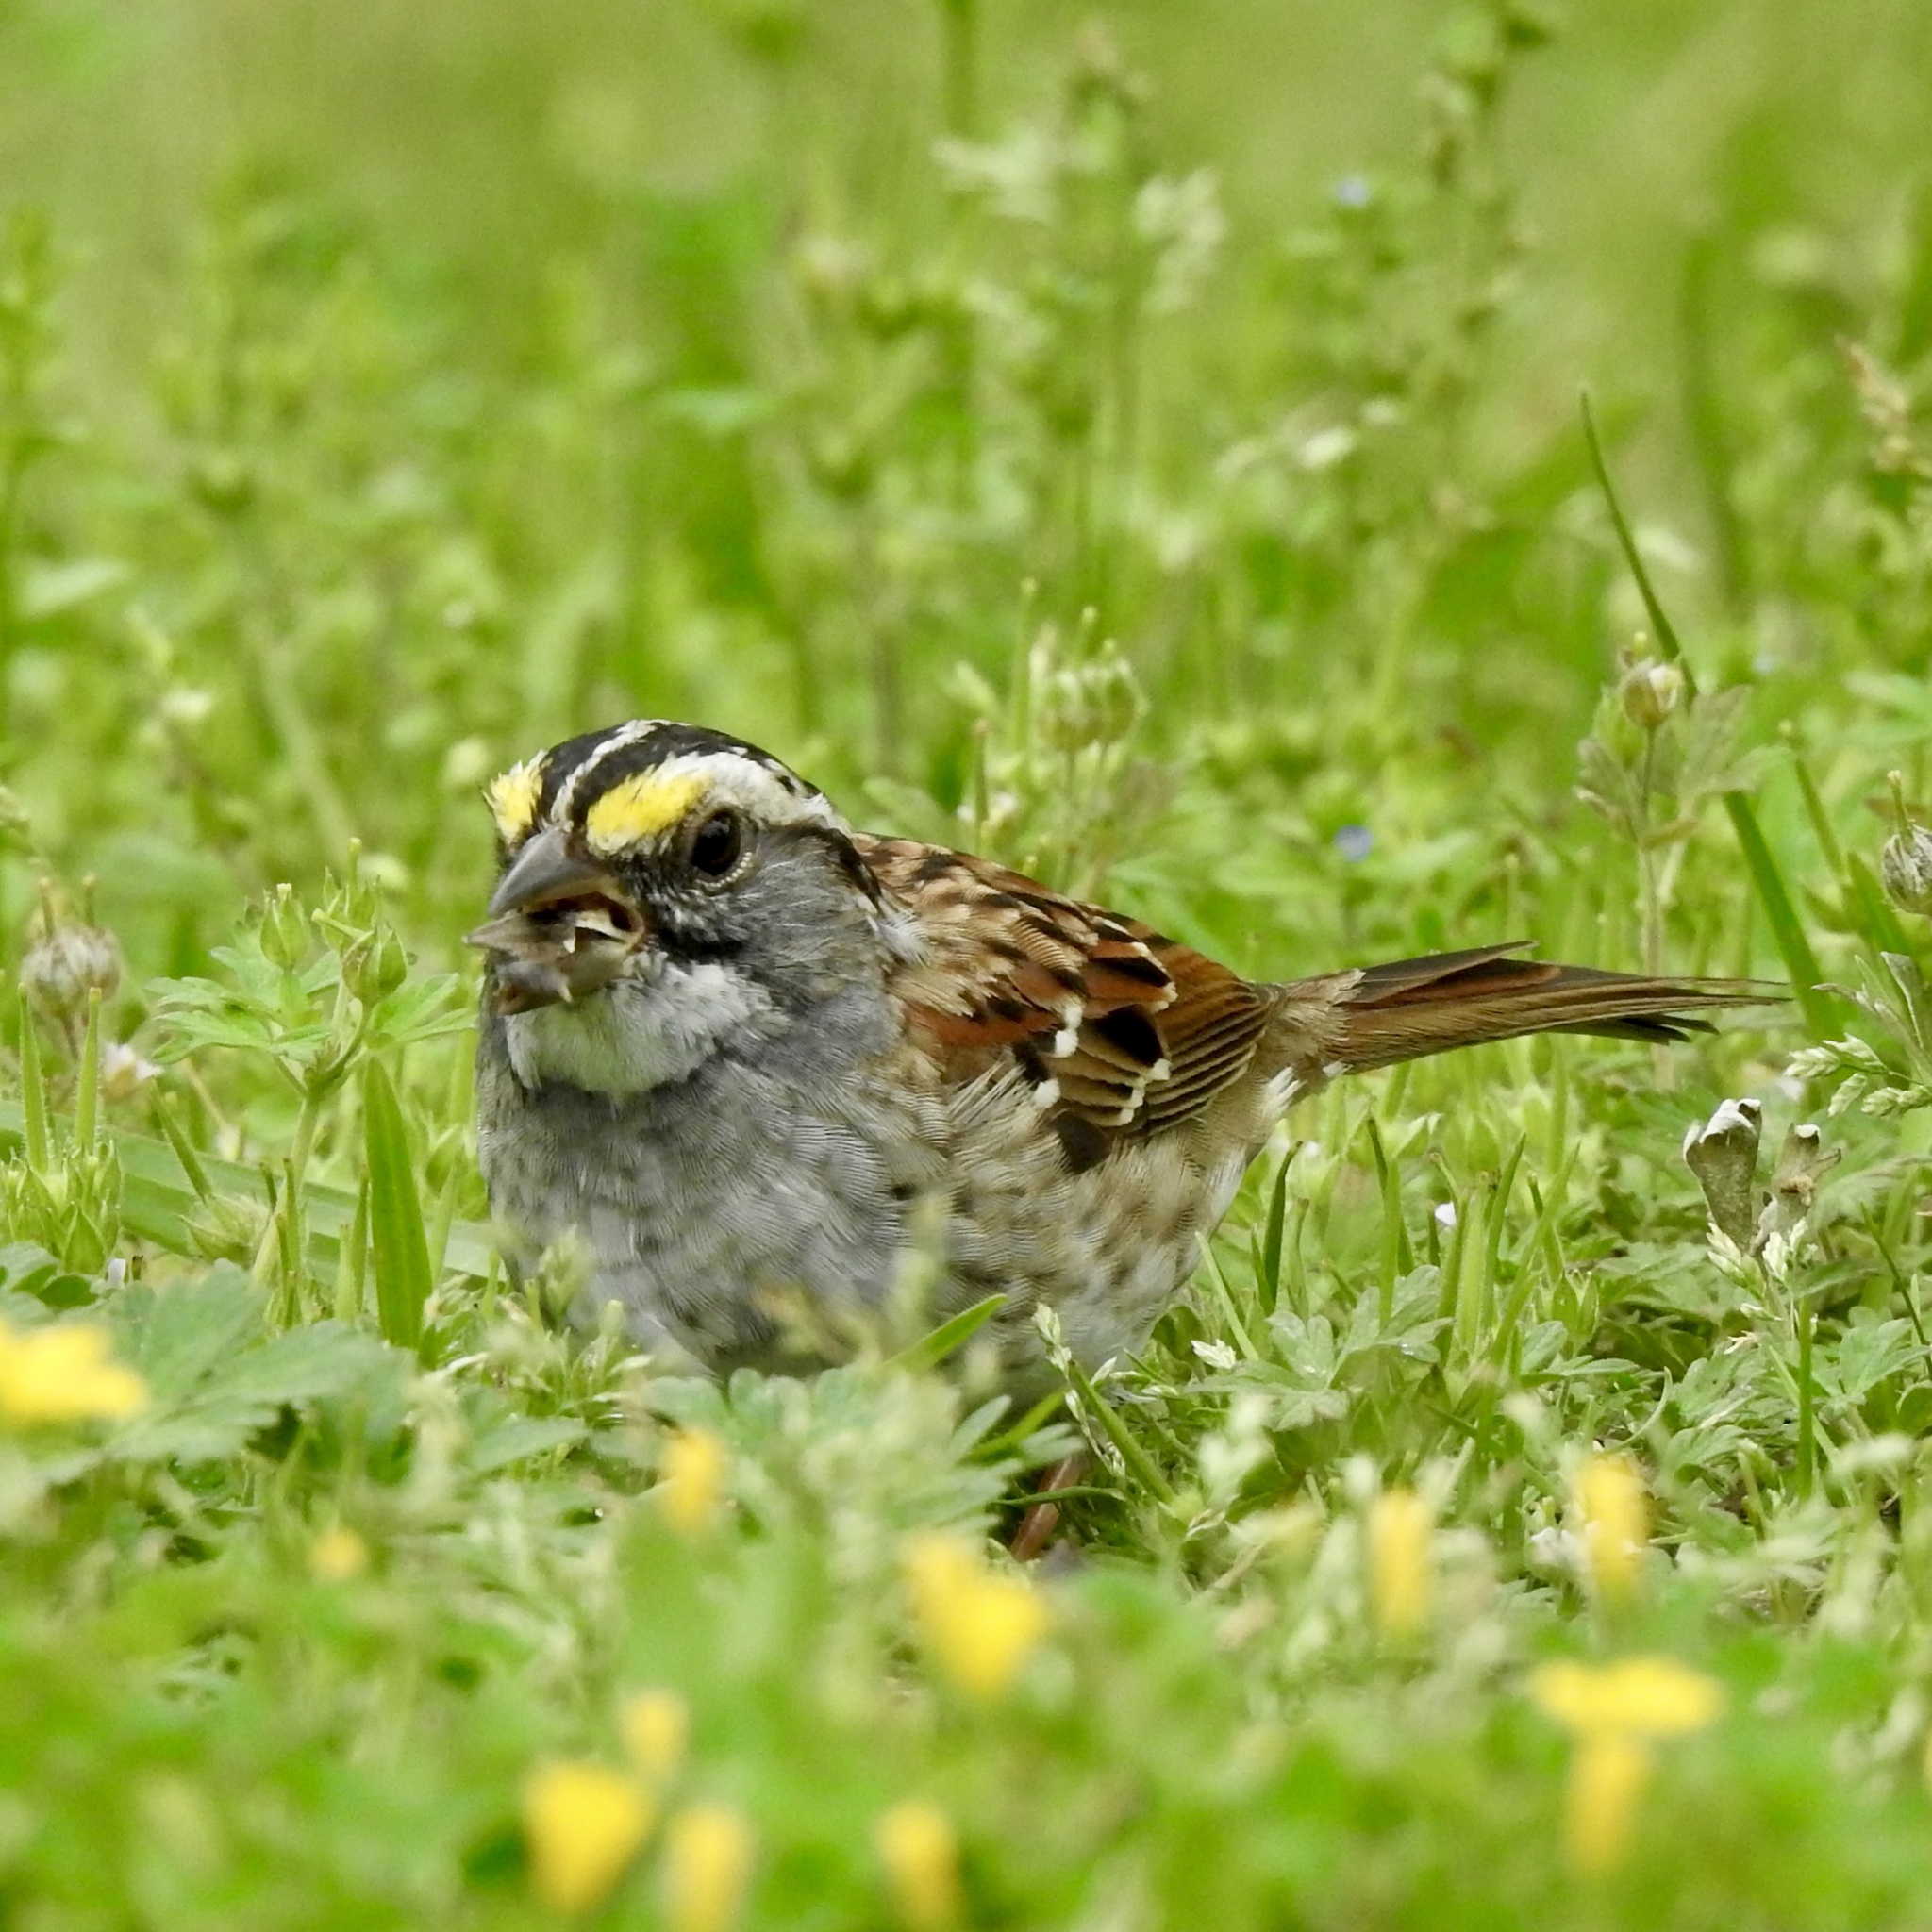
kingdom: Animalia
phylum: Chordata
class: Aves
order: Passeriformes
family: Passerellidae
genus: Zonotrichia
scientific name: Zonotrichia albicollis
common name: White-throated sparrow
